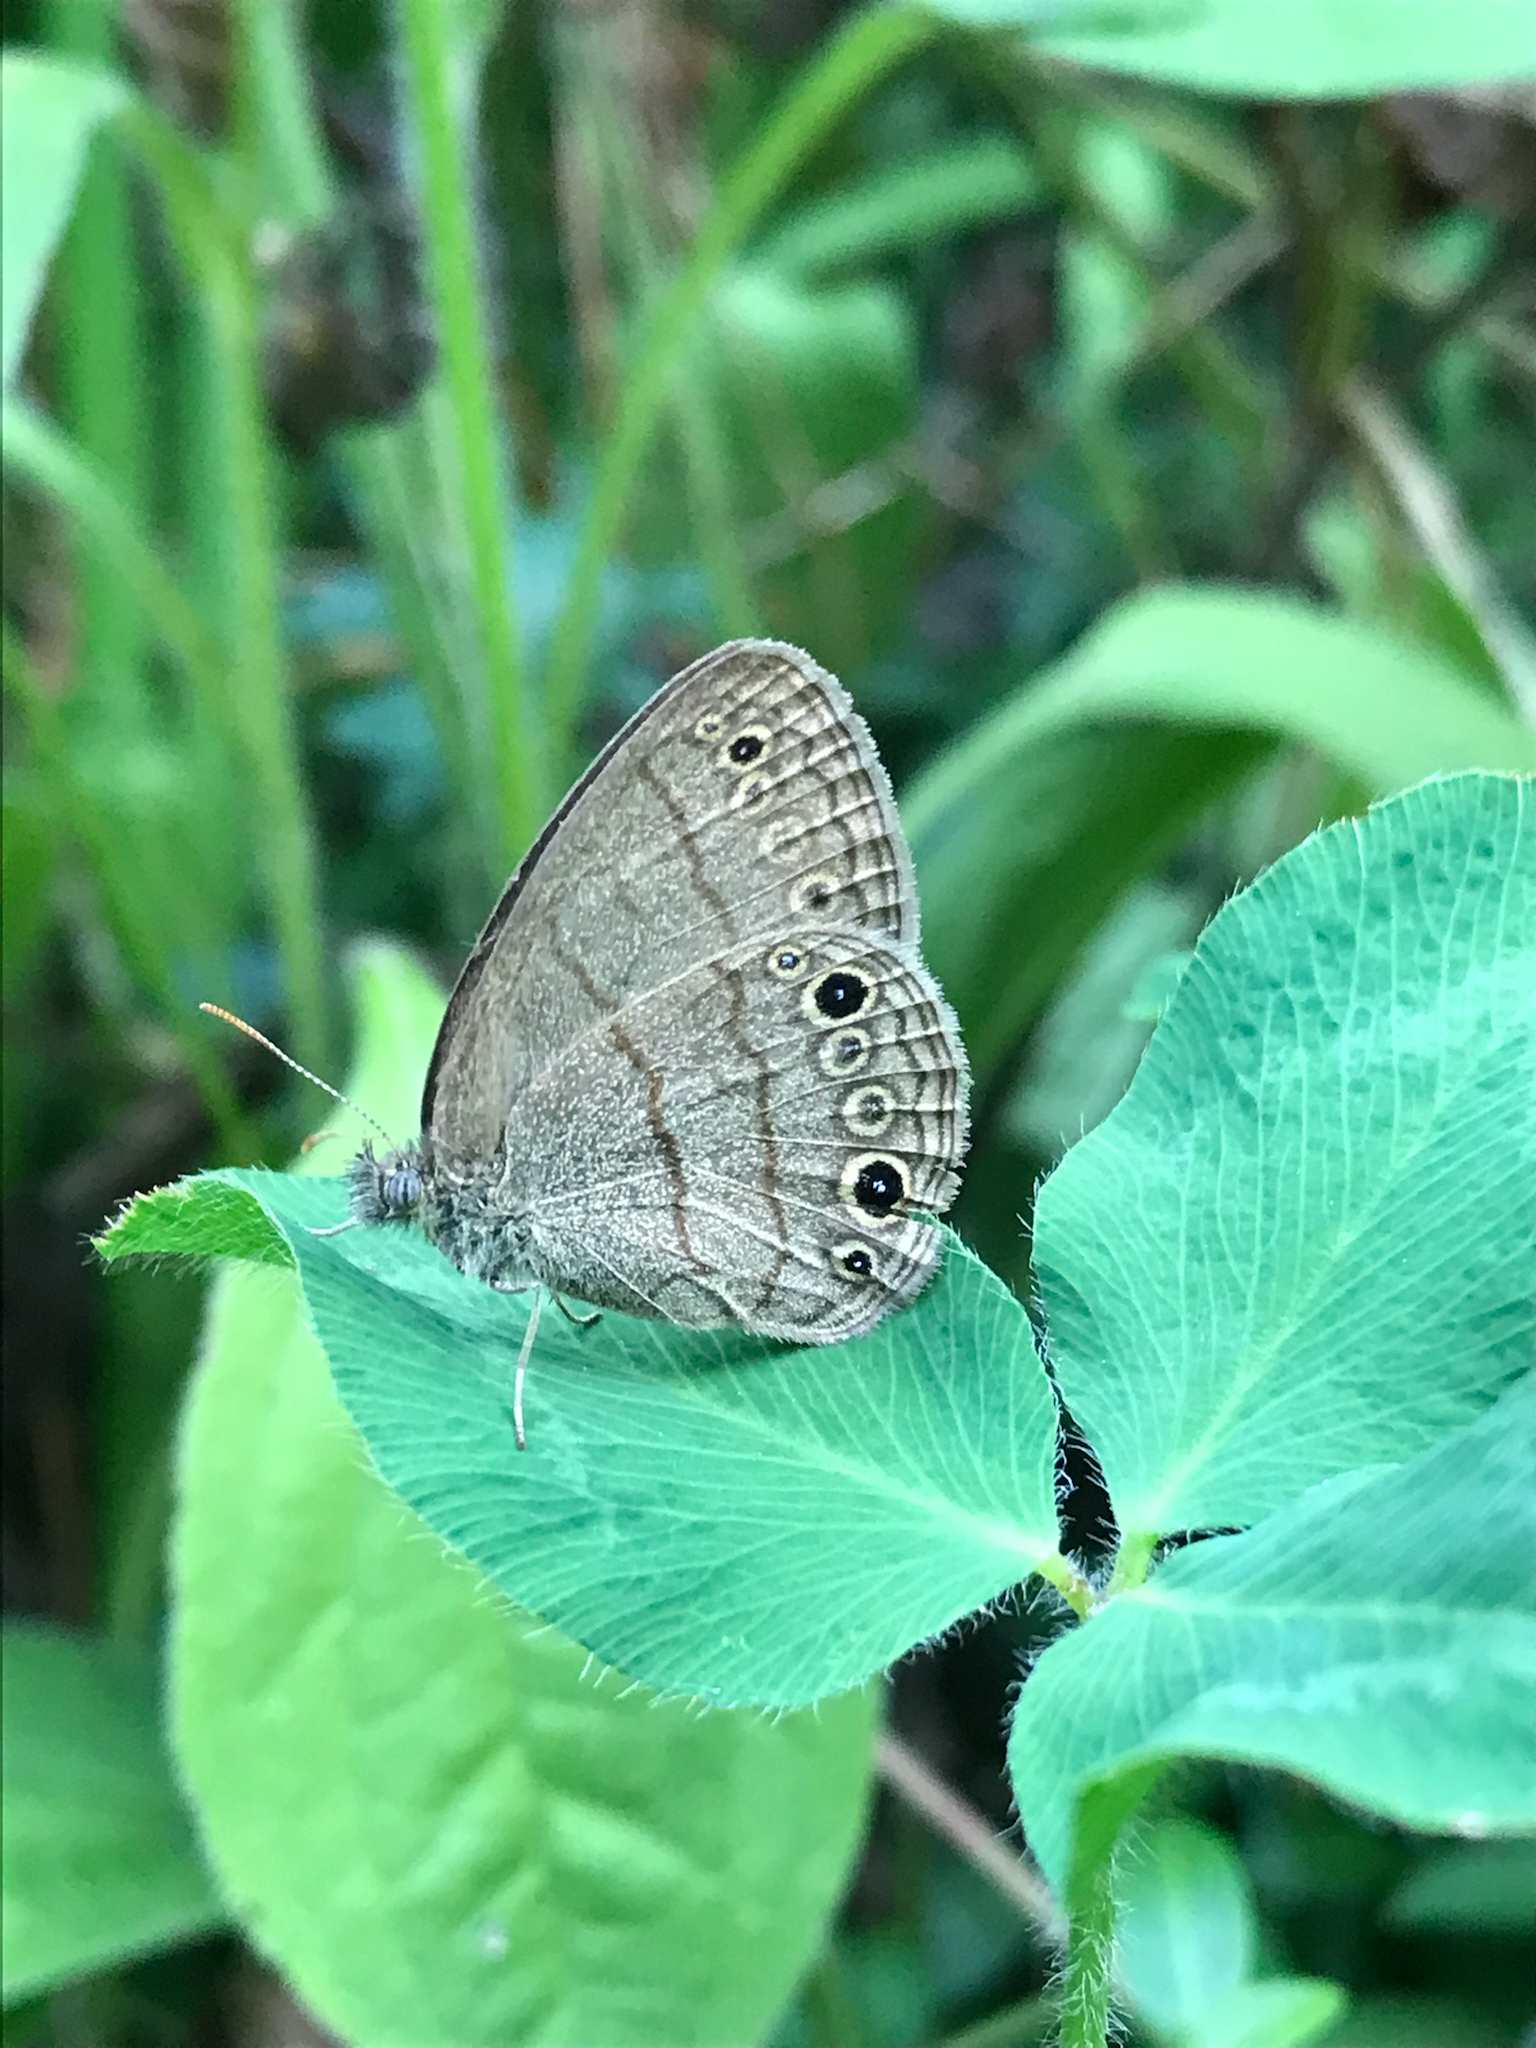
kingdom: Animalia
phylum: Arthropoda
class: Insecta
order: Lepidoptera
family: Nymphalidae
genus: Hermeuptychia
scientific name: Hermeuptychia hermes
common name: Hermes satyr
